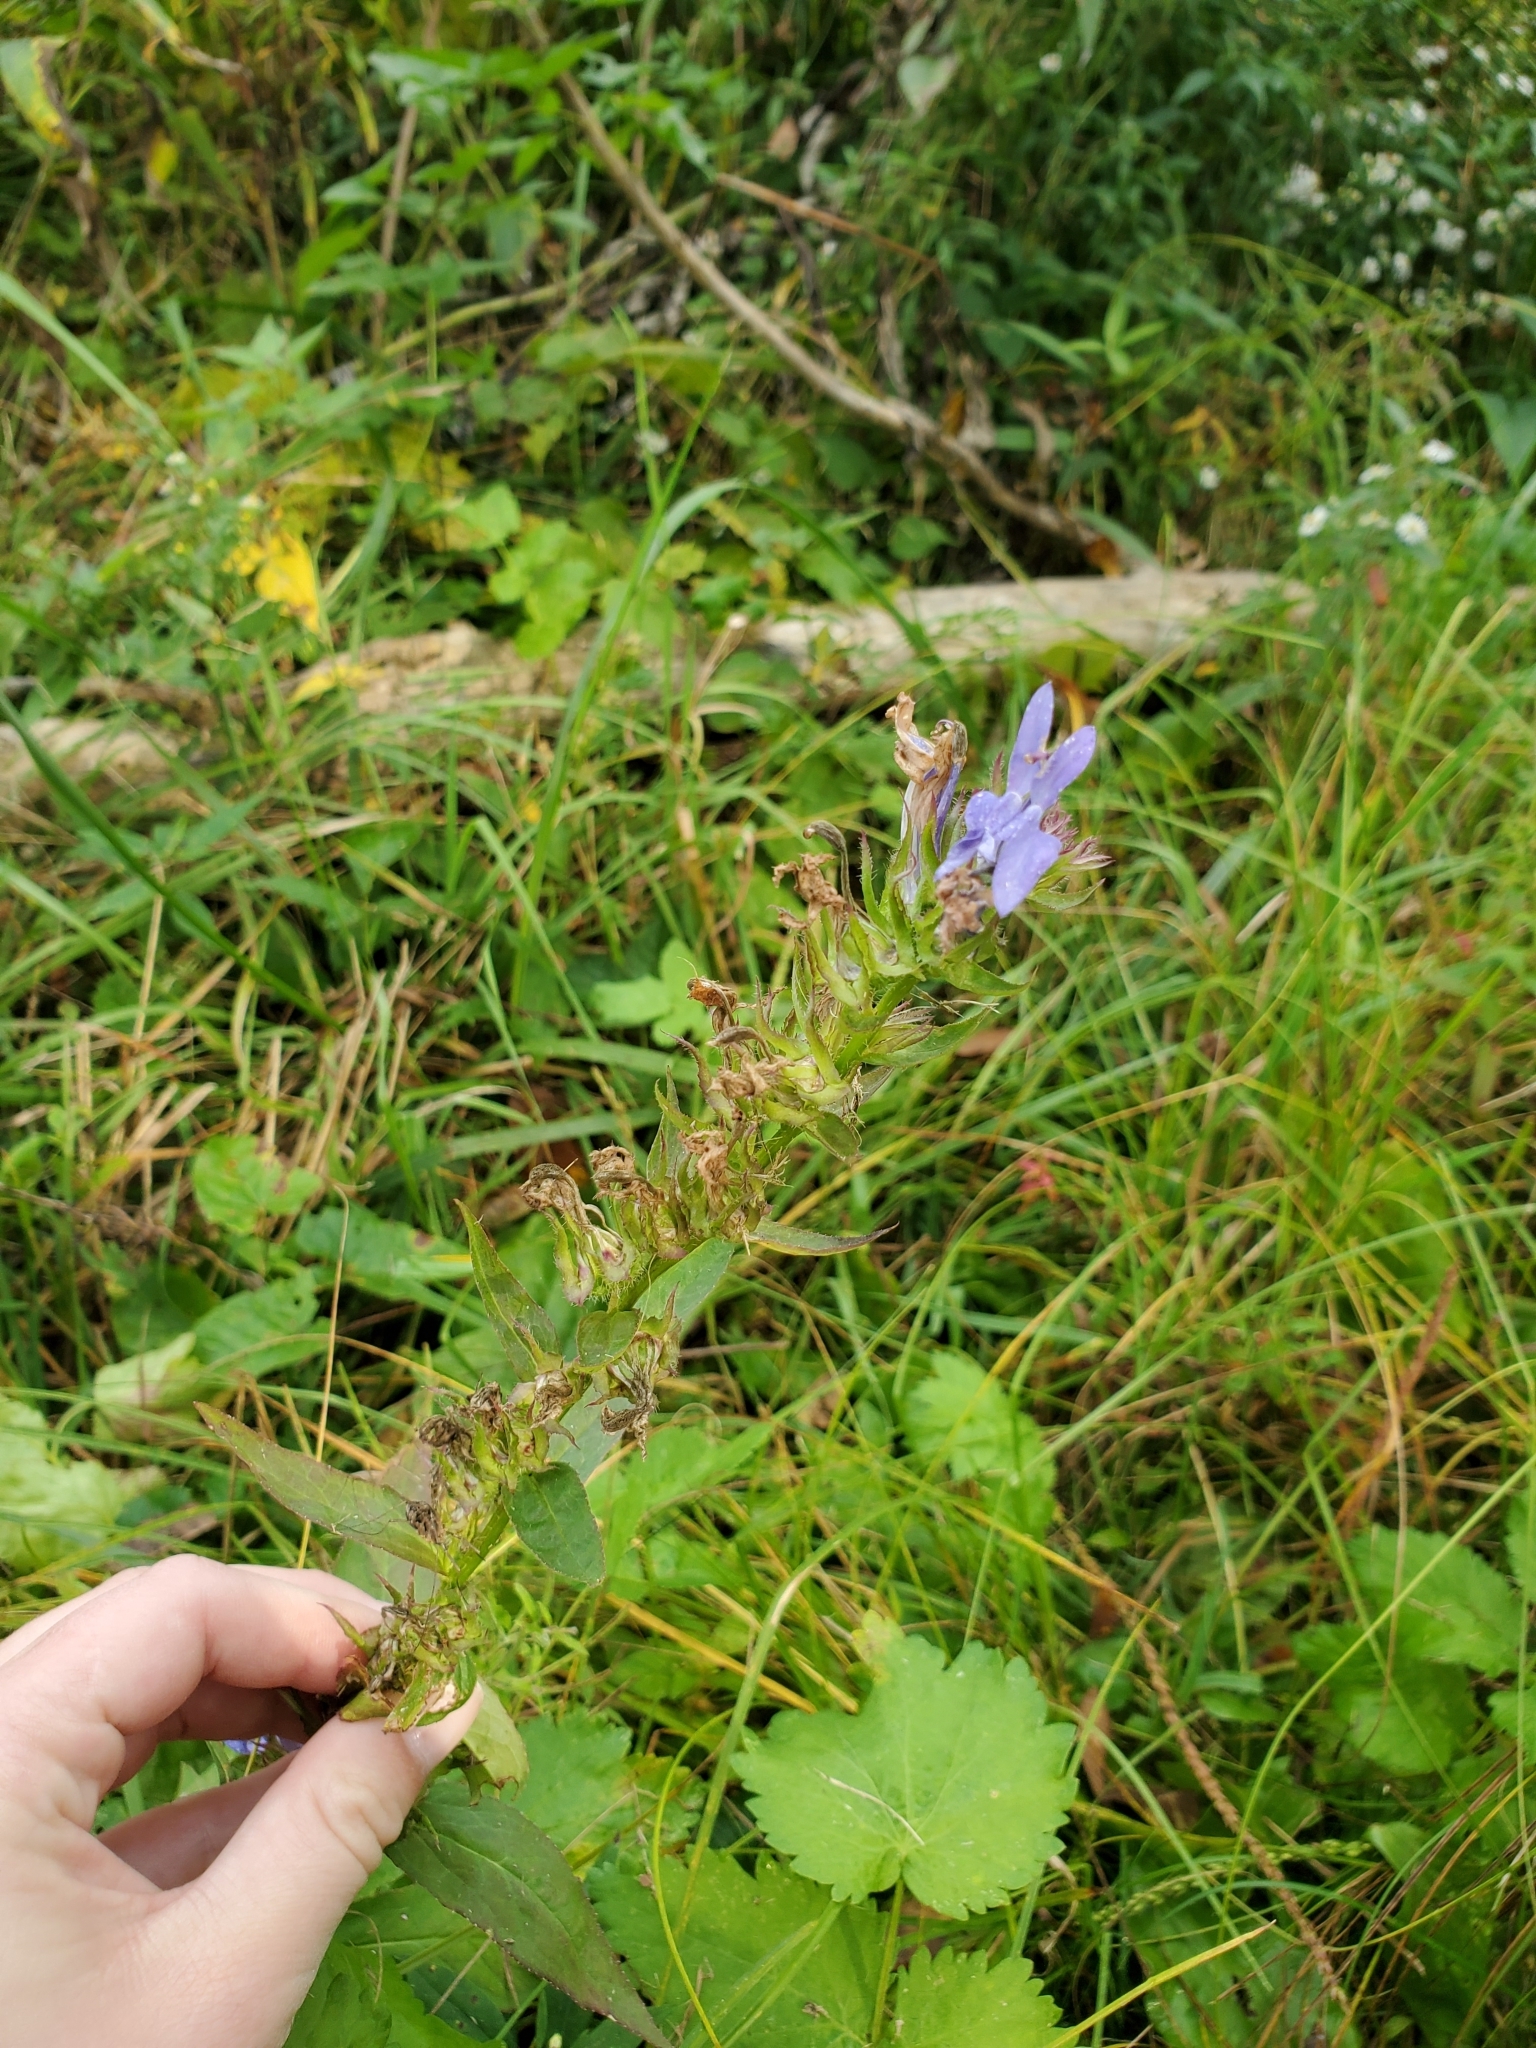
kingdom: Plantae
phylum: Tracheophyta
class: Magnoliopsida
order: Asterales
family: Campanulaceae
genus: Lobelia
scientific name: Lobelia siphilitica
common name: Great lobelia
